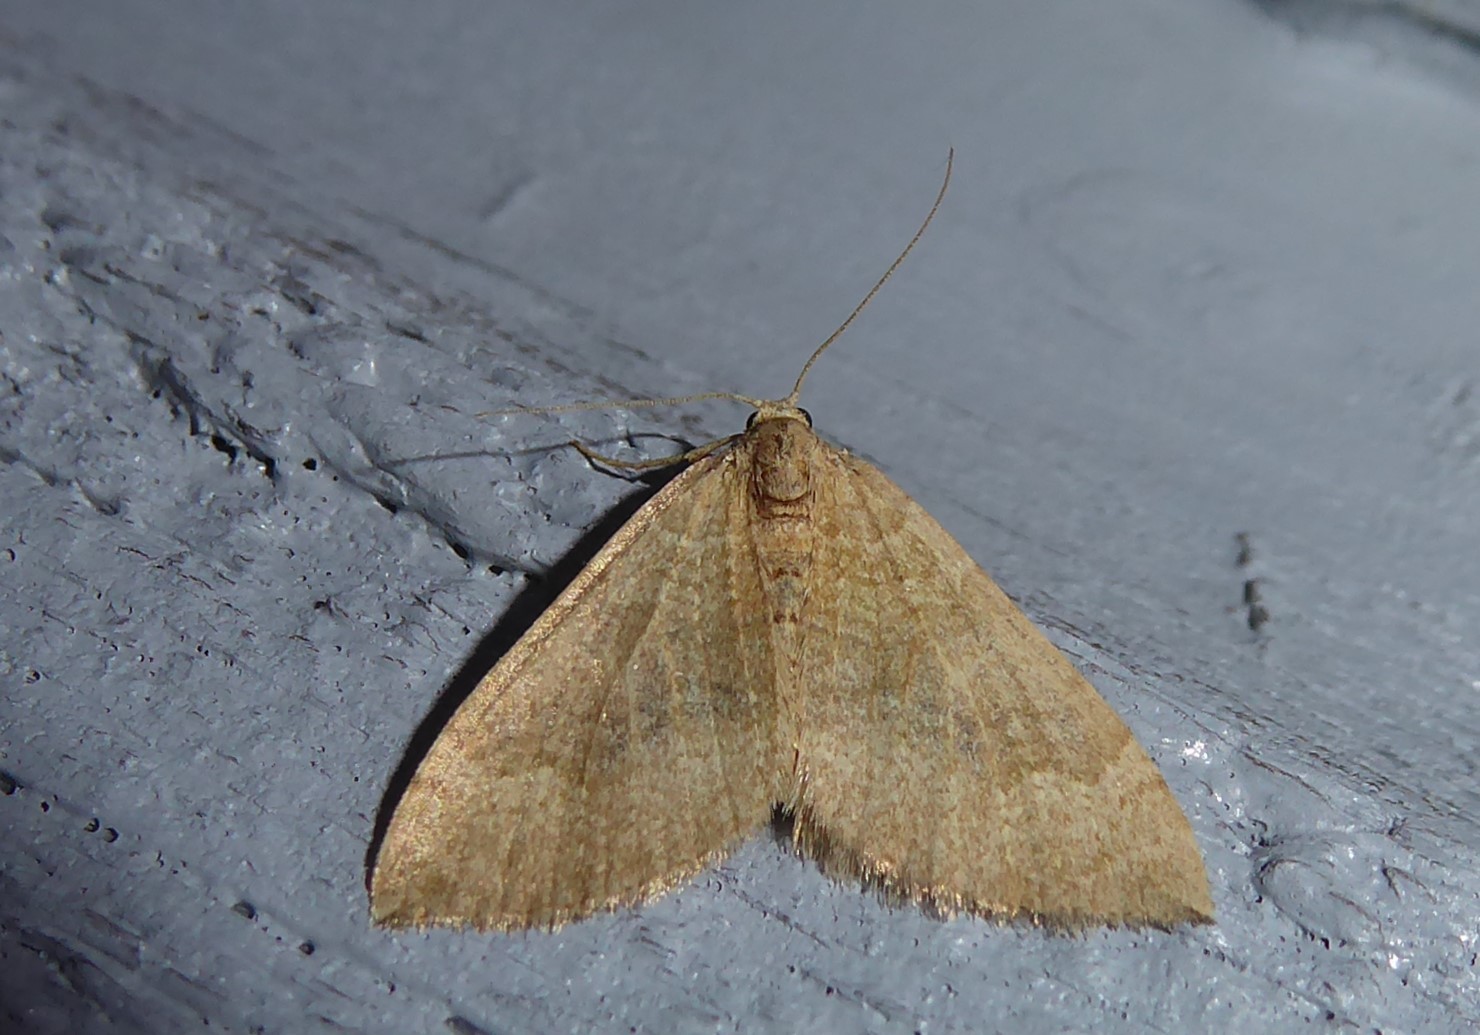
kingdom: Animalia
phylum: Arthropoda
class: Insecta
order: Lepidoptera
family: Geometridae
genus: Epyaxa
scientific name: Epyaxa rosearia
